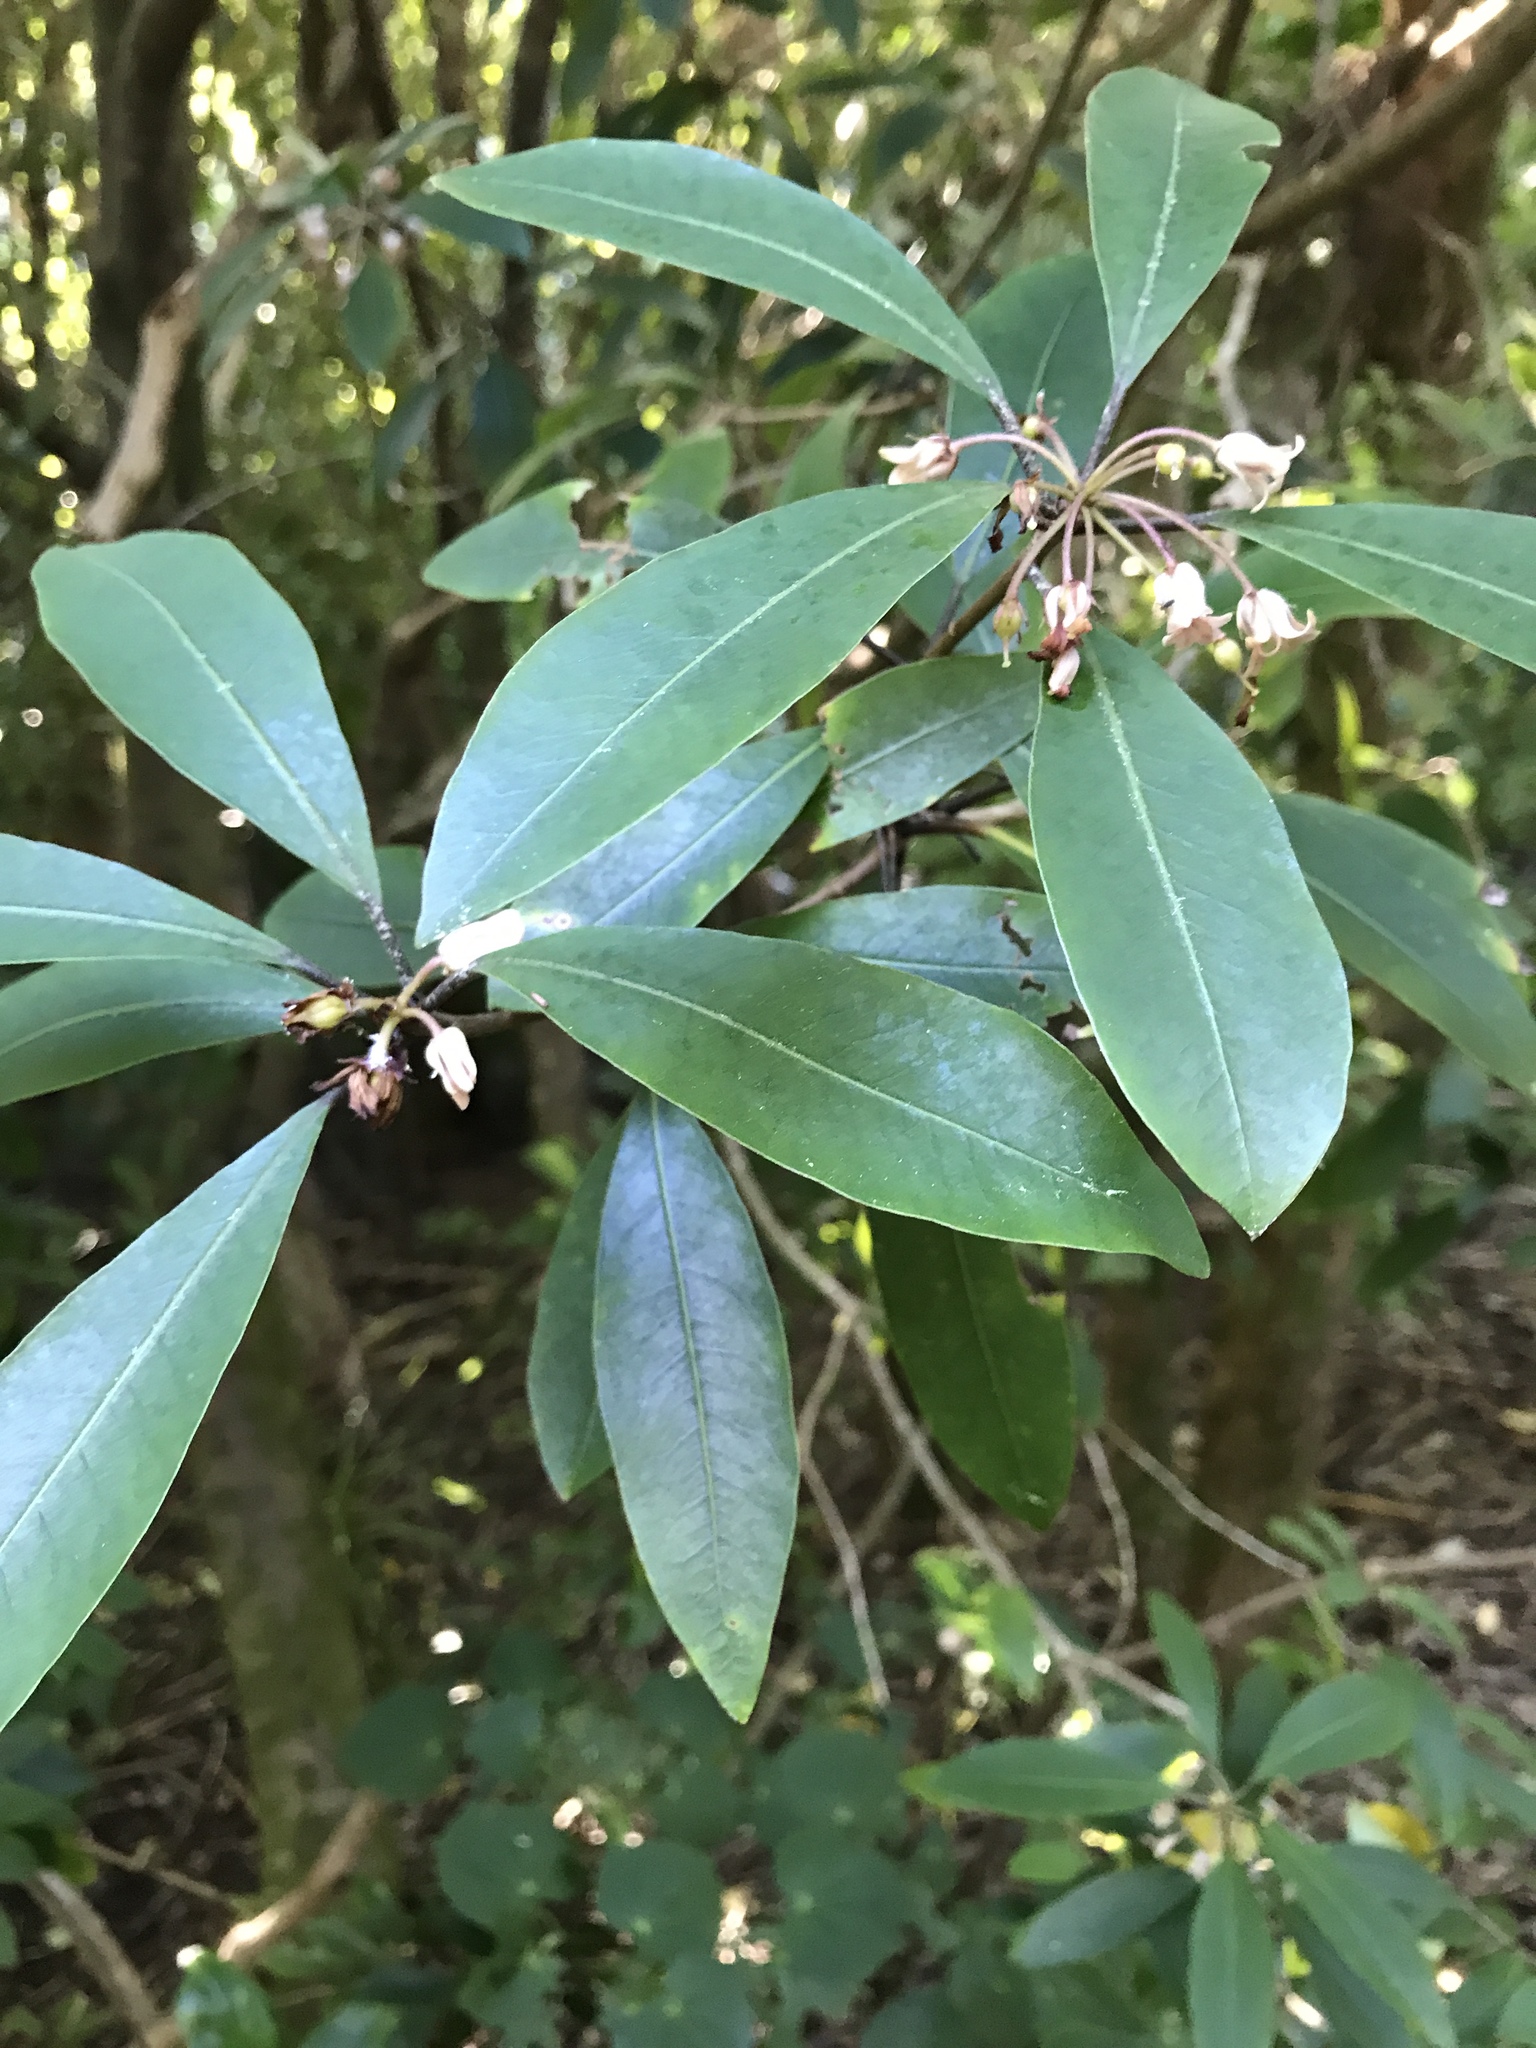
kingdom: Plantae
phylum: Tracheophyta
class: Magnoliopsida
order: Apiales
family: Pittosporaceae
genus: Pittosporum
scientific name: Pittosporum umbellatum
